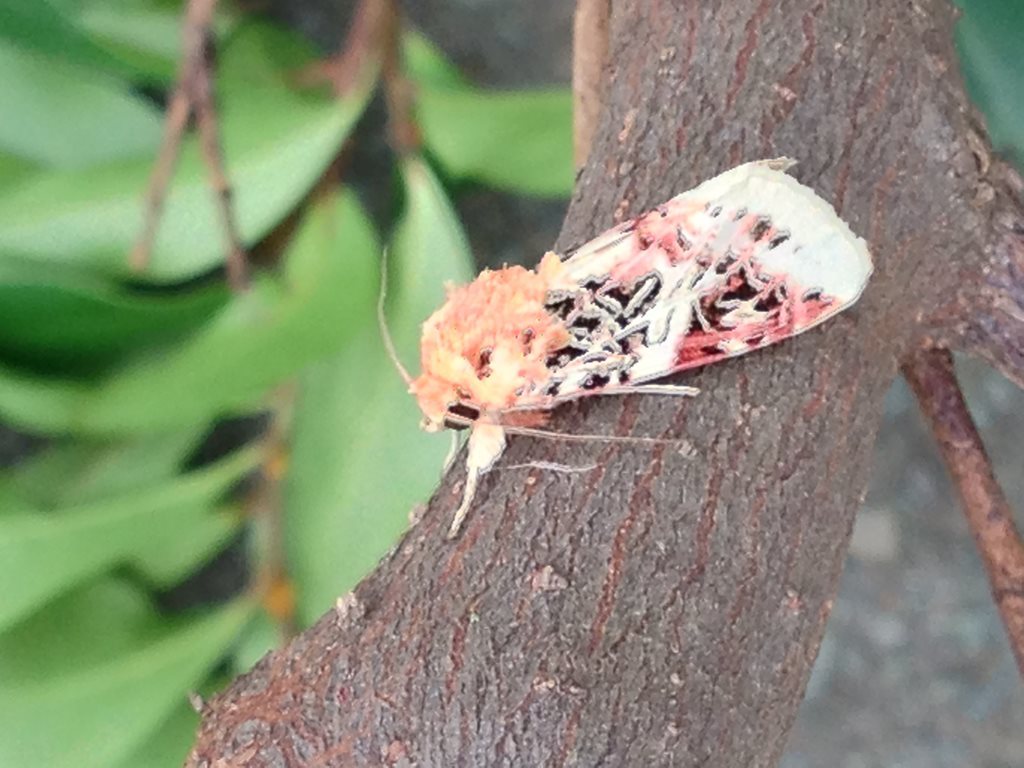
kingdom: Animalia
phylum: Arthropoda
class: Insecta
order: Lepidoptera
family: Noctuidae
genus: Spodoptera
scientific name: Spodoptera picta
